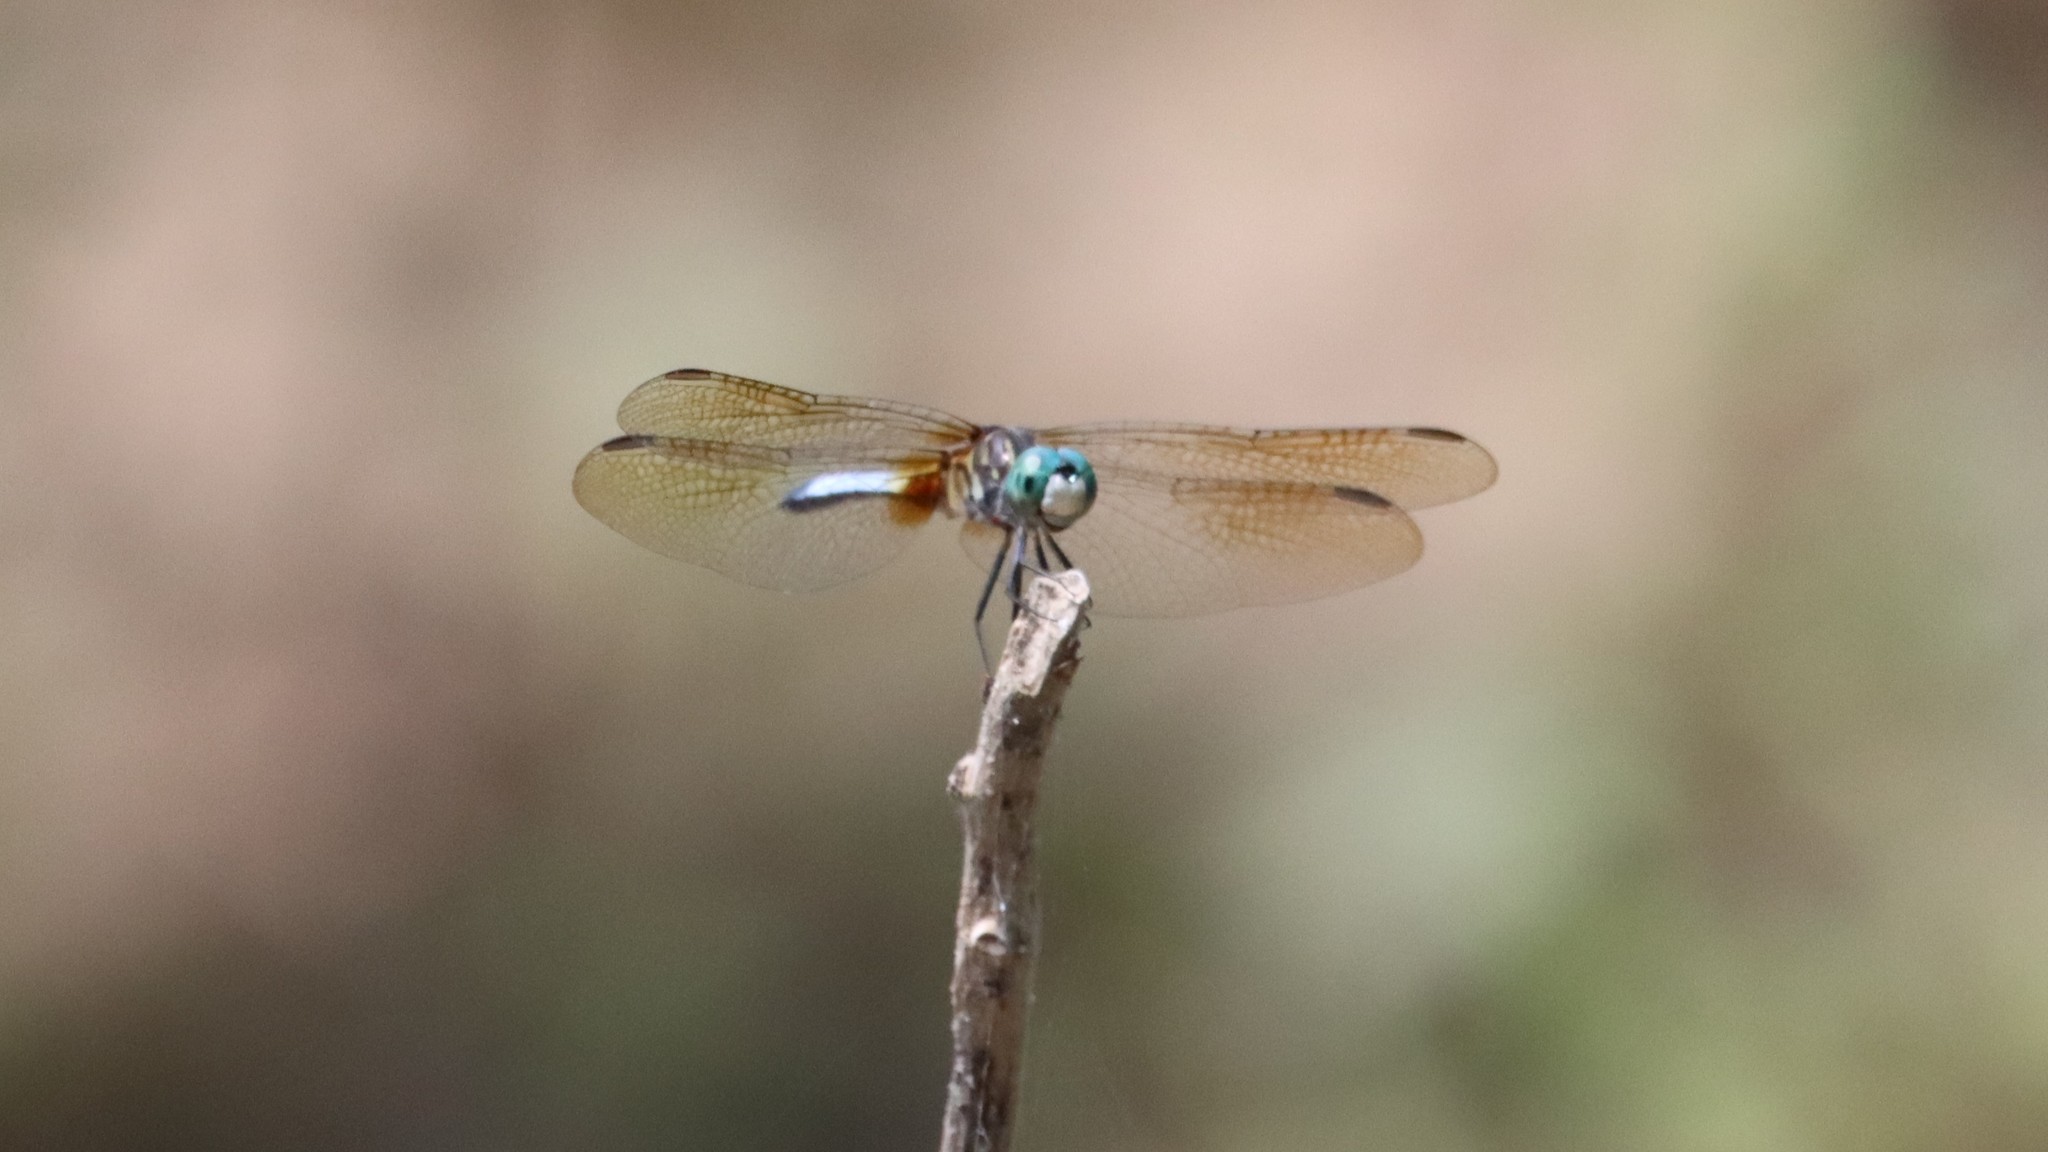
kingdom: Animalia
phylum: Arthropoda
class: Insecta
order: Odonata
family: Libellulidae
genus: Pachydiplax
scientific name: Pachydiplax longipennis
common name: Blue dasher
